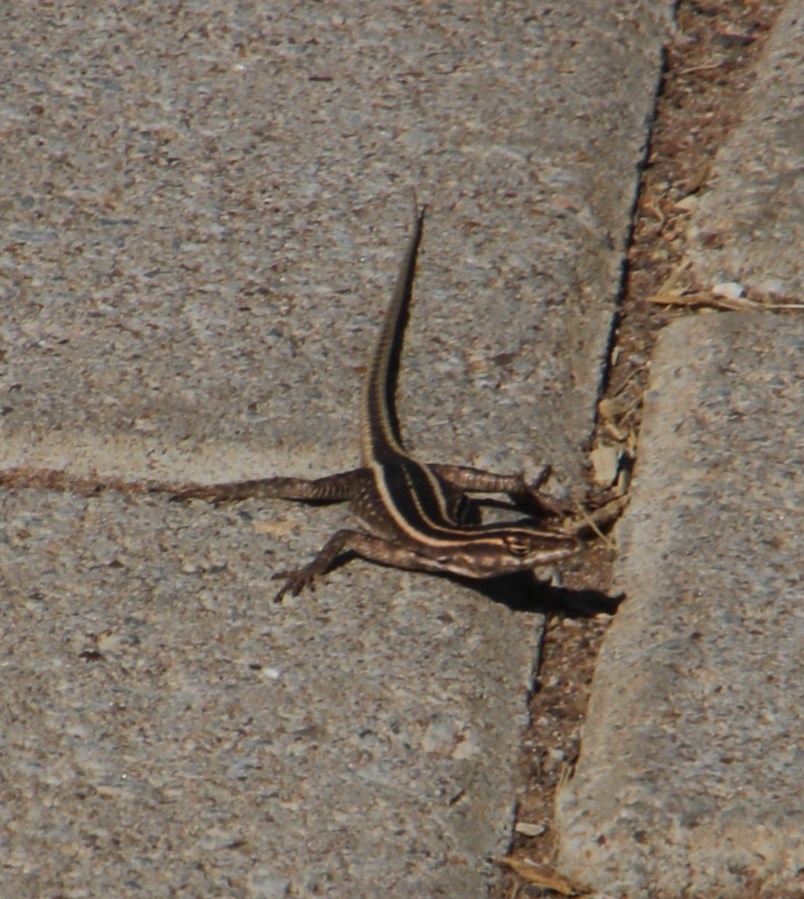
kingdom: Animalia
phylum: Chordata
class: Squamata
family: Cordylidae
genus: Platysaurus
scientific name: Platysaurus intermedius
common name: Common flat lizard
